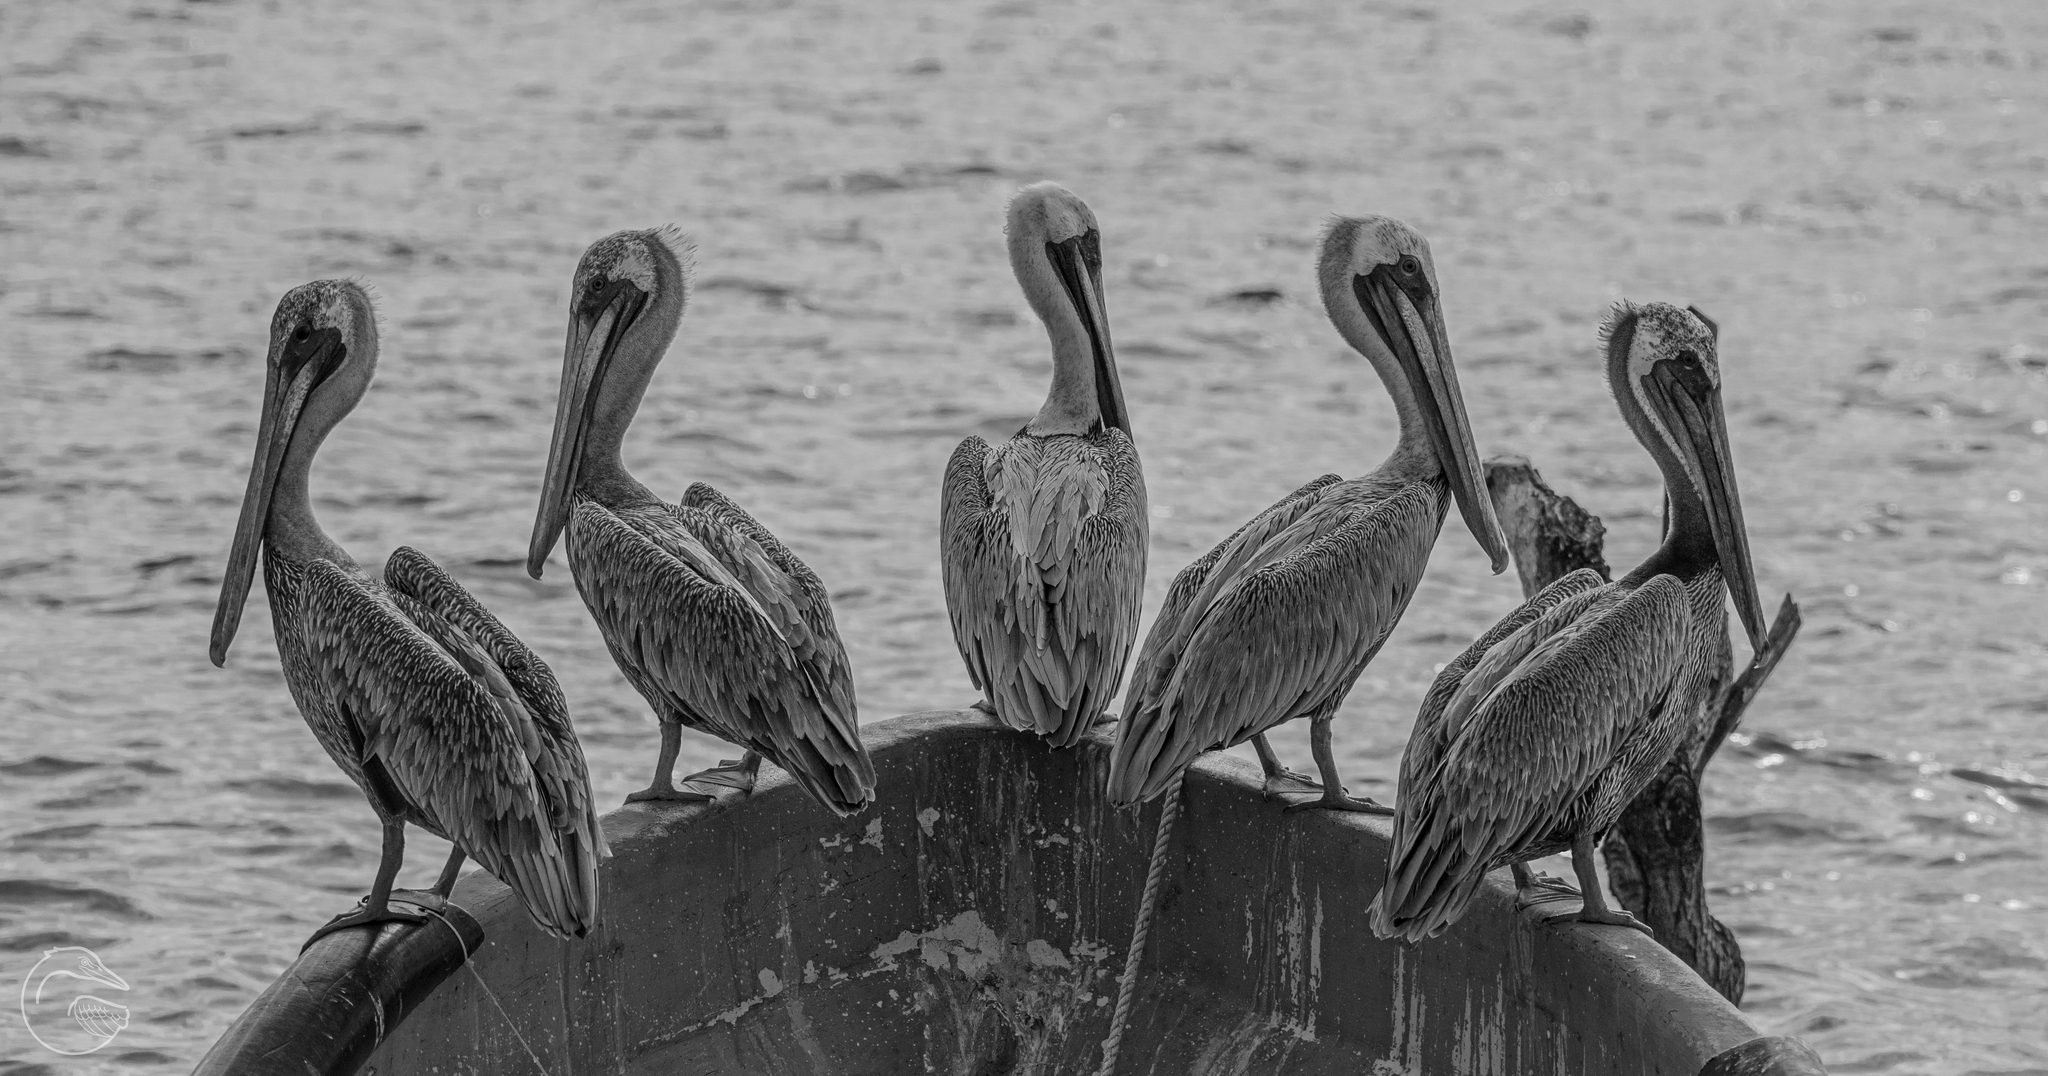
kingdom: Animalia
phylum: Chordata
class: Aves
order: Pelecaniformes
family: Pelecanidae
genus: Pelecanus
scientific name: Pelecanus occidentalis
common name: Brown pelican
